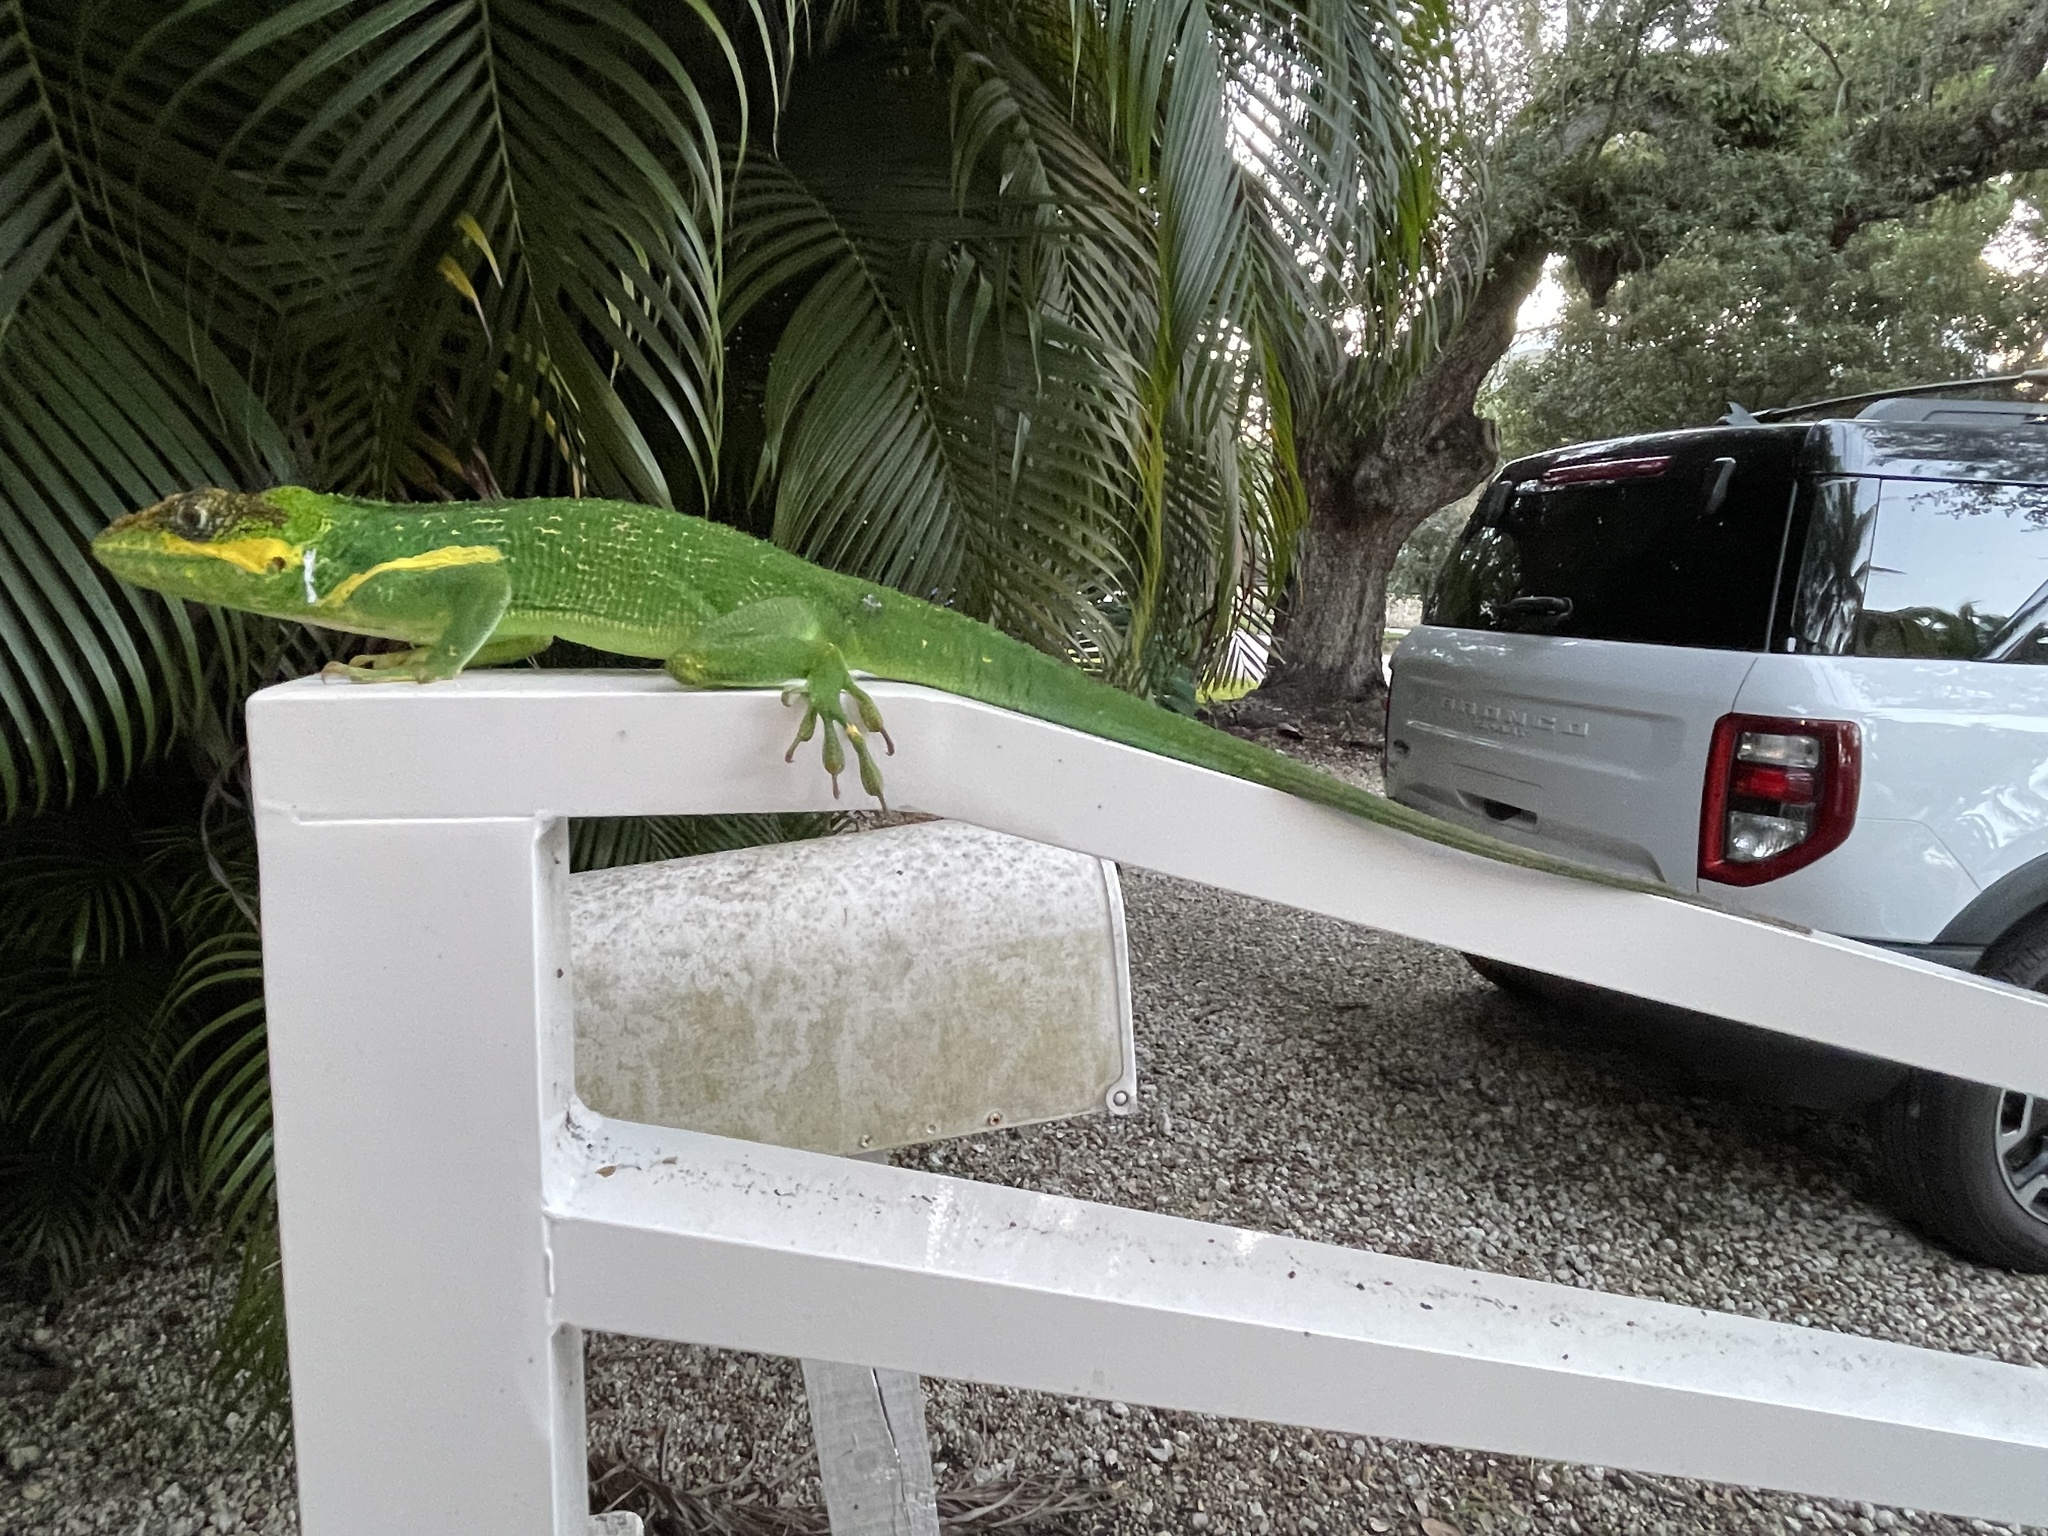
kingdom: Animalia
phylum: Chordata
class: Squamata
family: Dactyloidae
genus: Anolis
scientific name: Anolis equestris
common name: Knight anole
